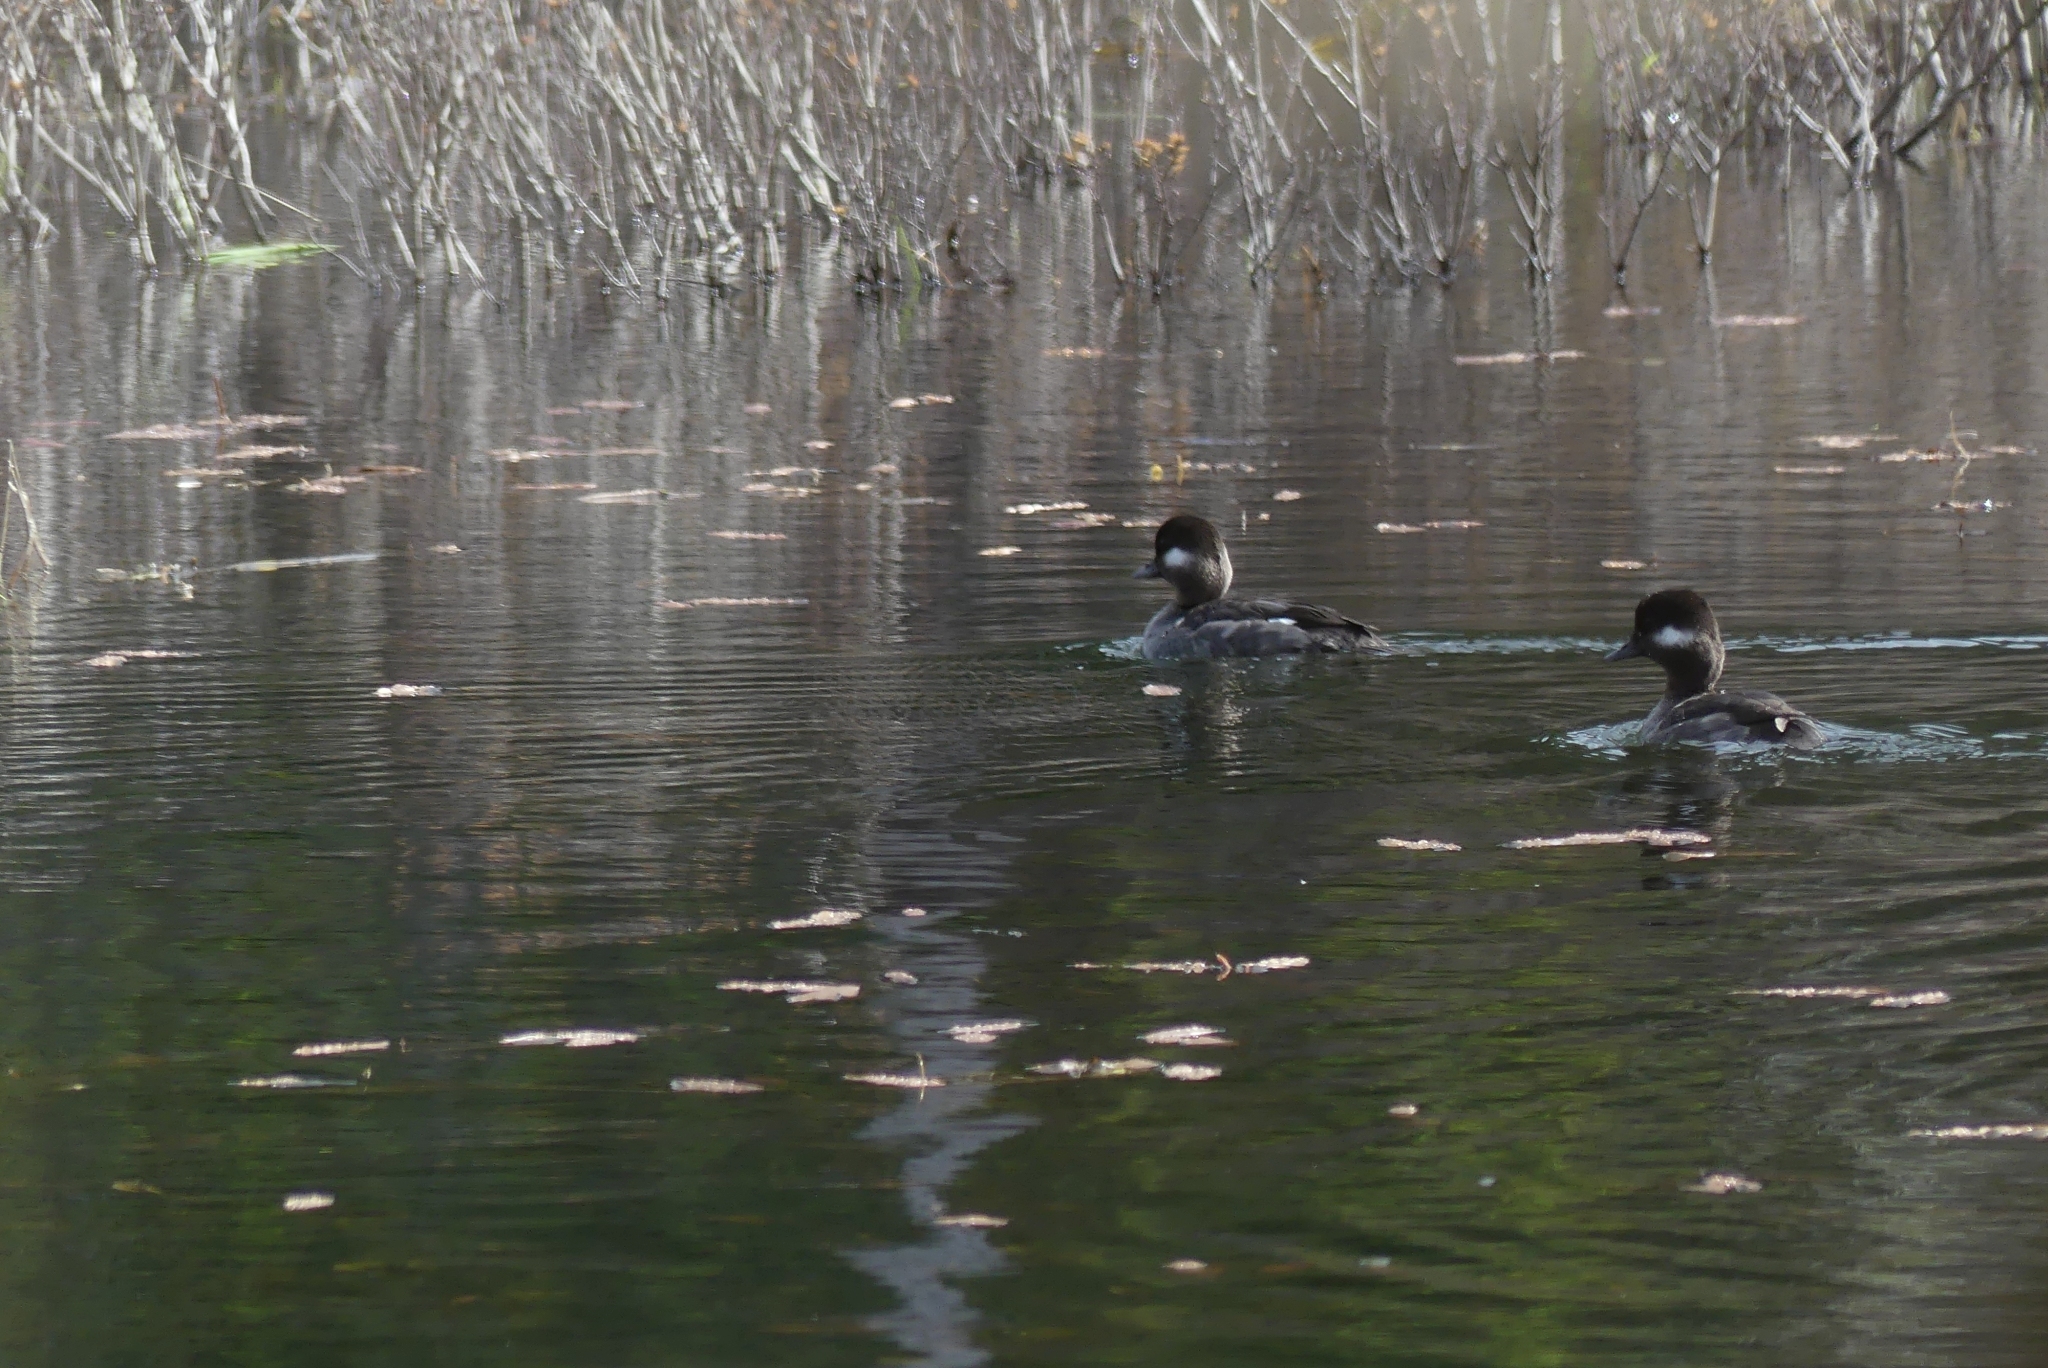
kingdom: Animalia
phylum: Chordata
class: Aves
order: Anseriformes
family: Anatidae
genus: Bucephala
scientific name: Bucephala albeola
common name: Bufflehead
